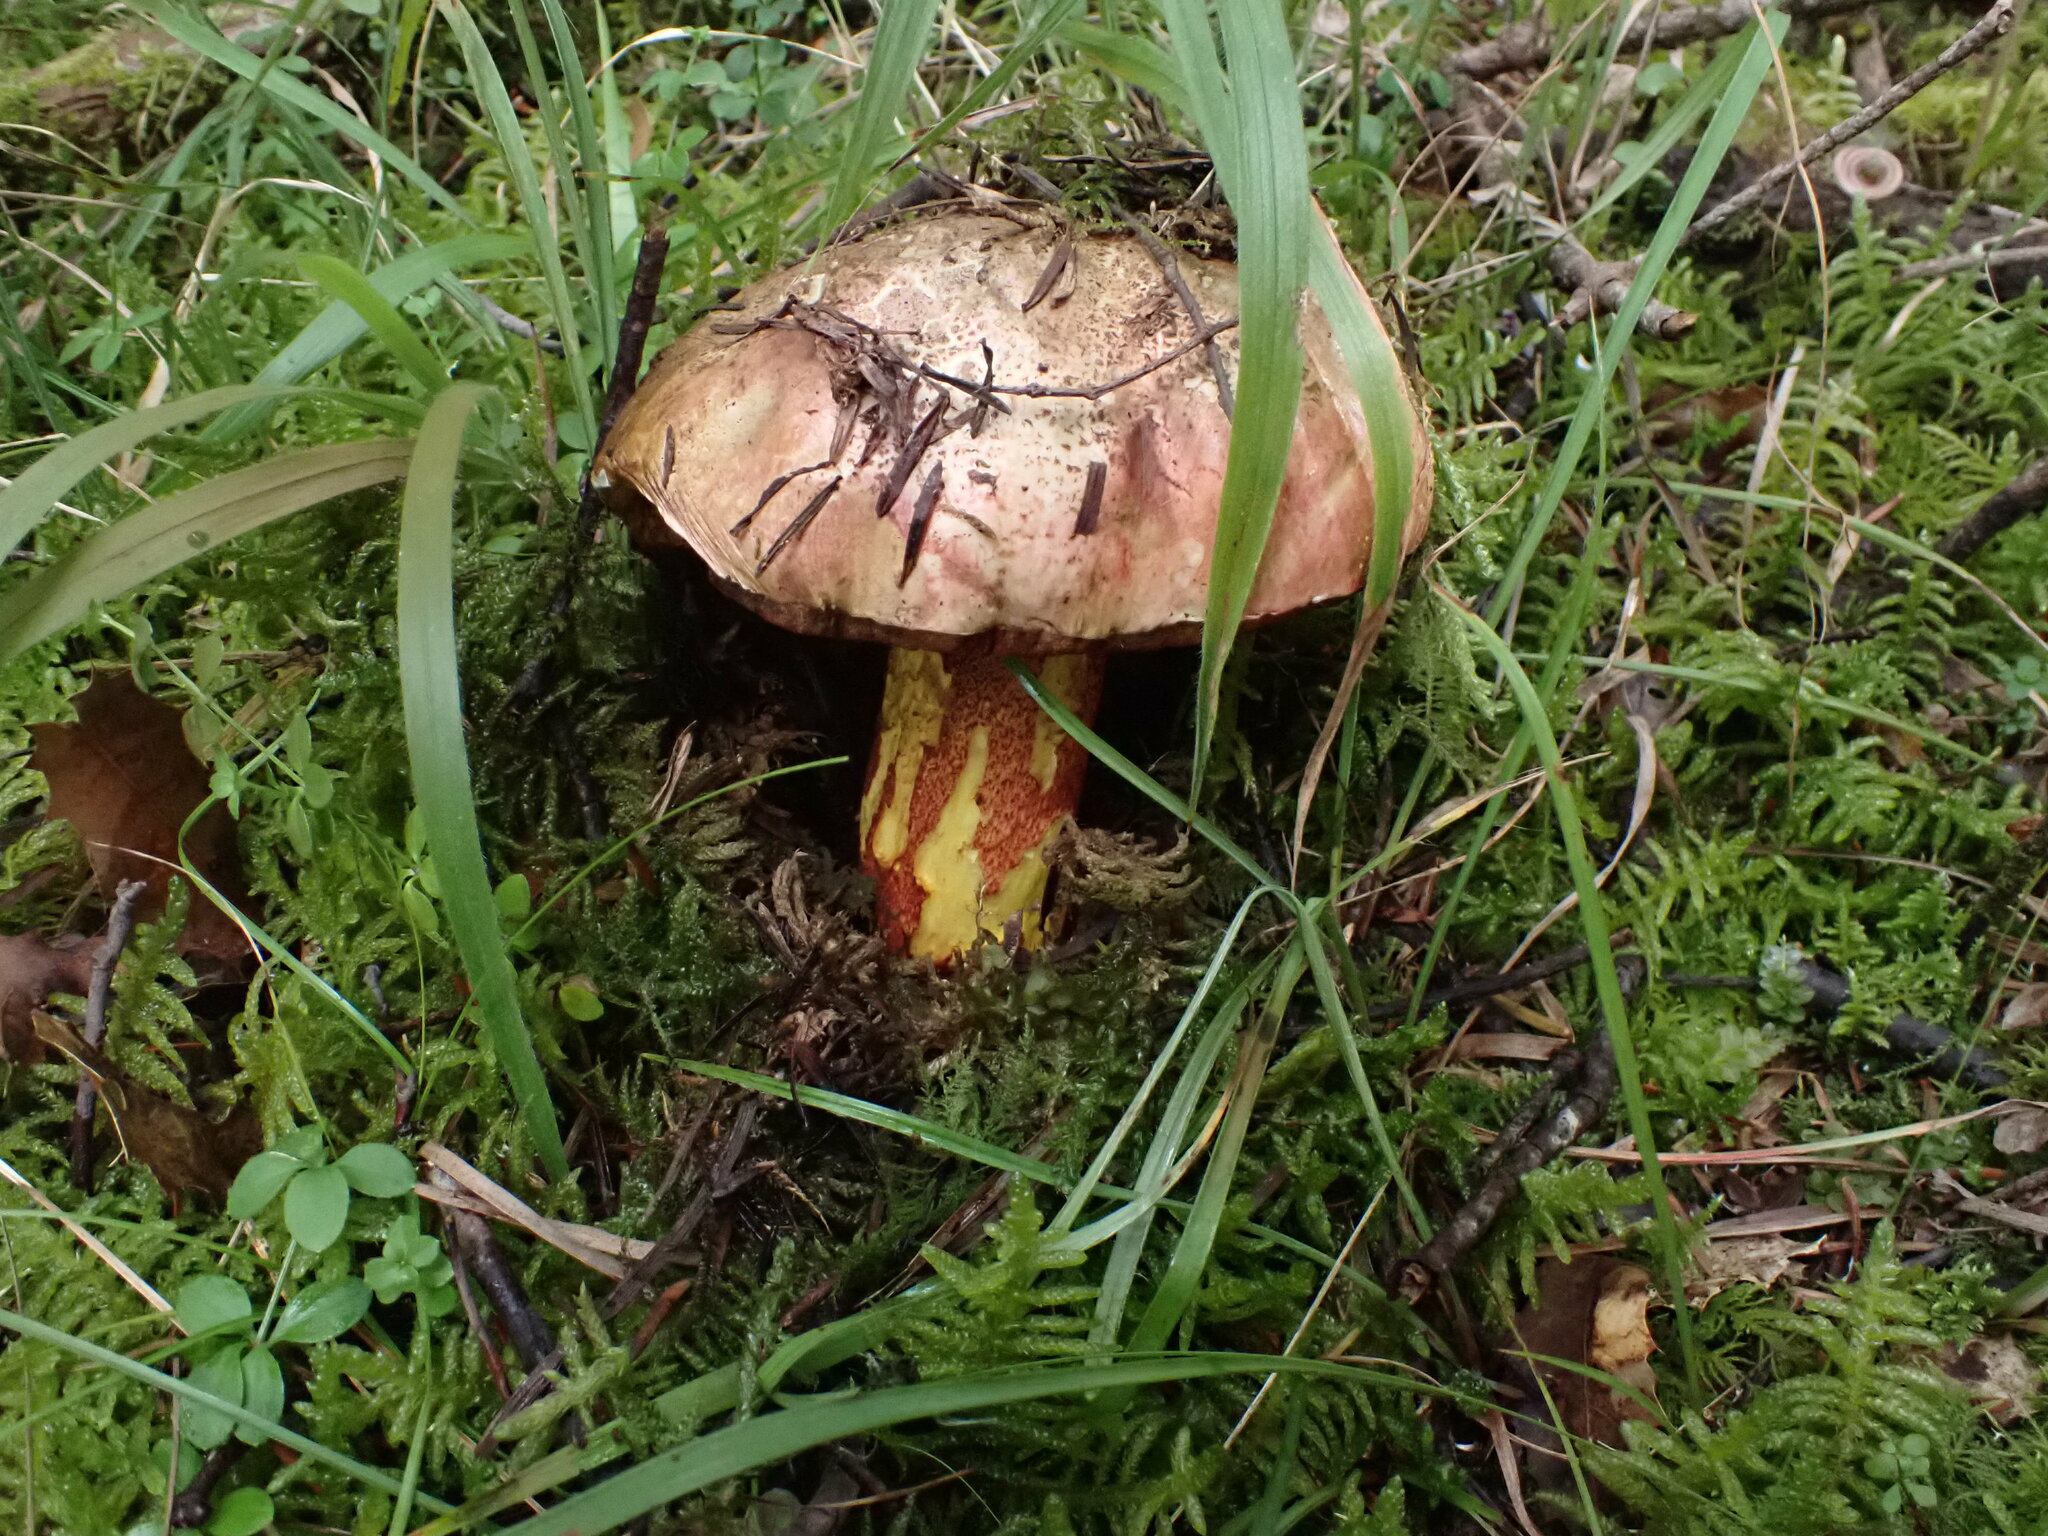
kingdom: Fungi
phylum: Basidiomycota
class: Agaricomycetes
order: Boletales
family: Boletaceae
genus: Rubroboletus
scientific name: Rubroboletus rhodoxanthus
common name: Ruddy bolete
